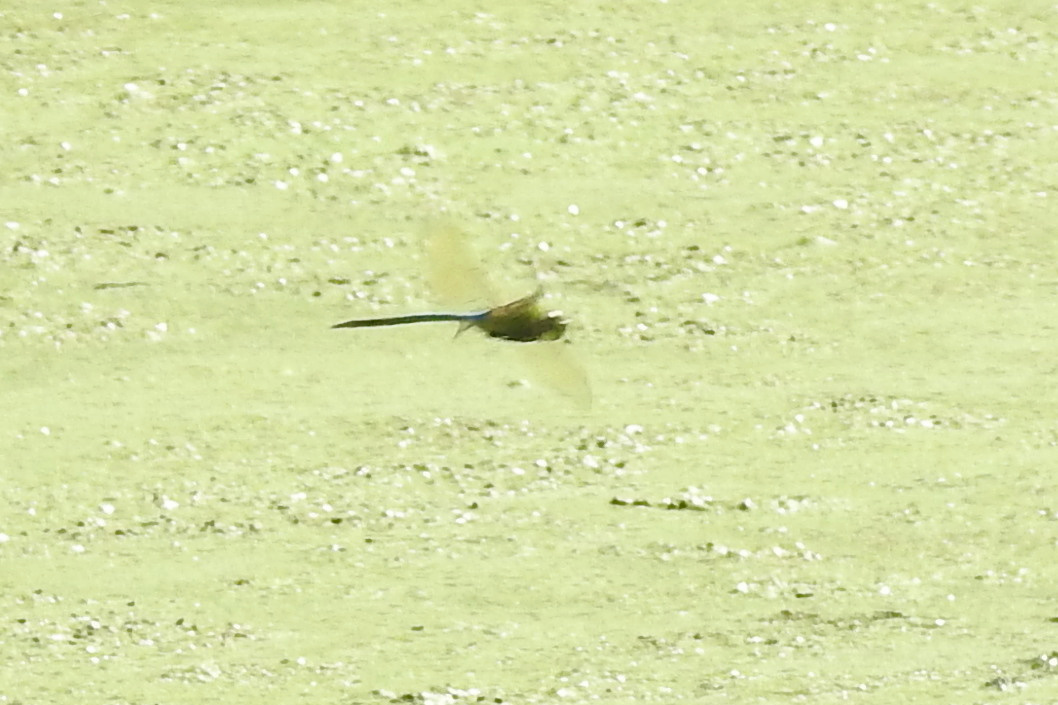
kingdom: Animalia
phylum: Arthropoda
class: Insecta
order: Odonata
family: Aeshnidae
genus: Anax
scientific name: Anax junius
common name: Common green darner
